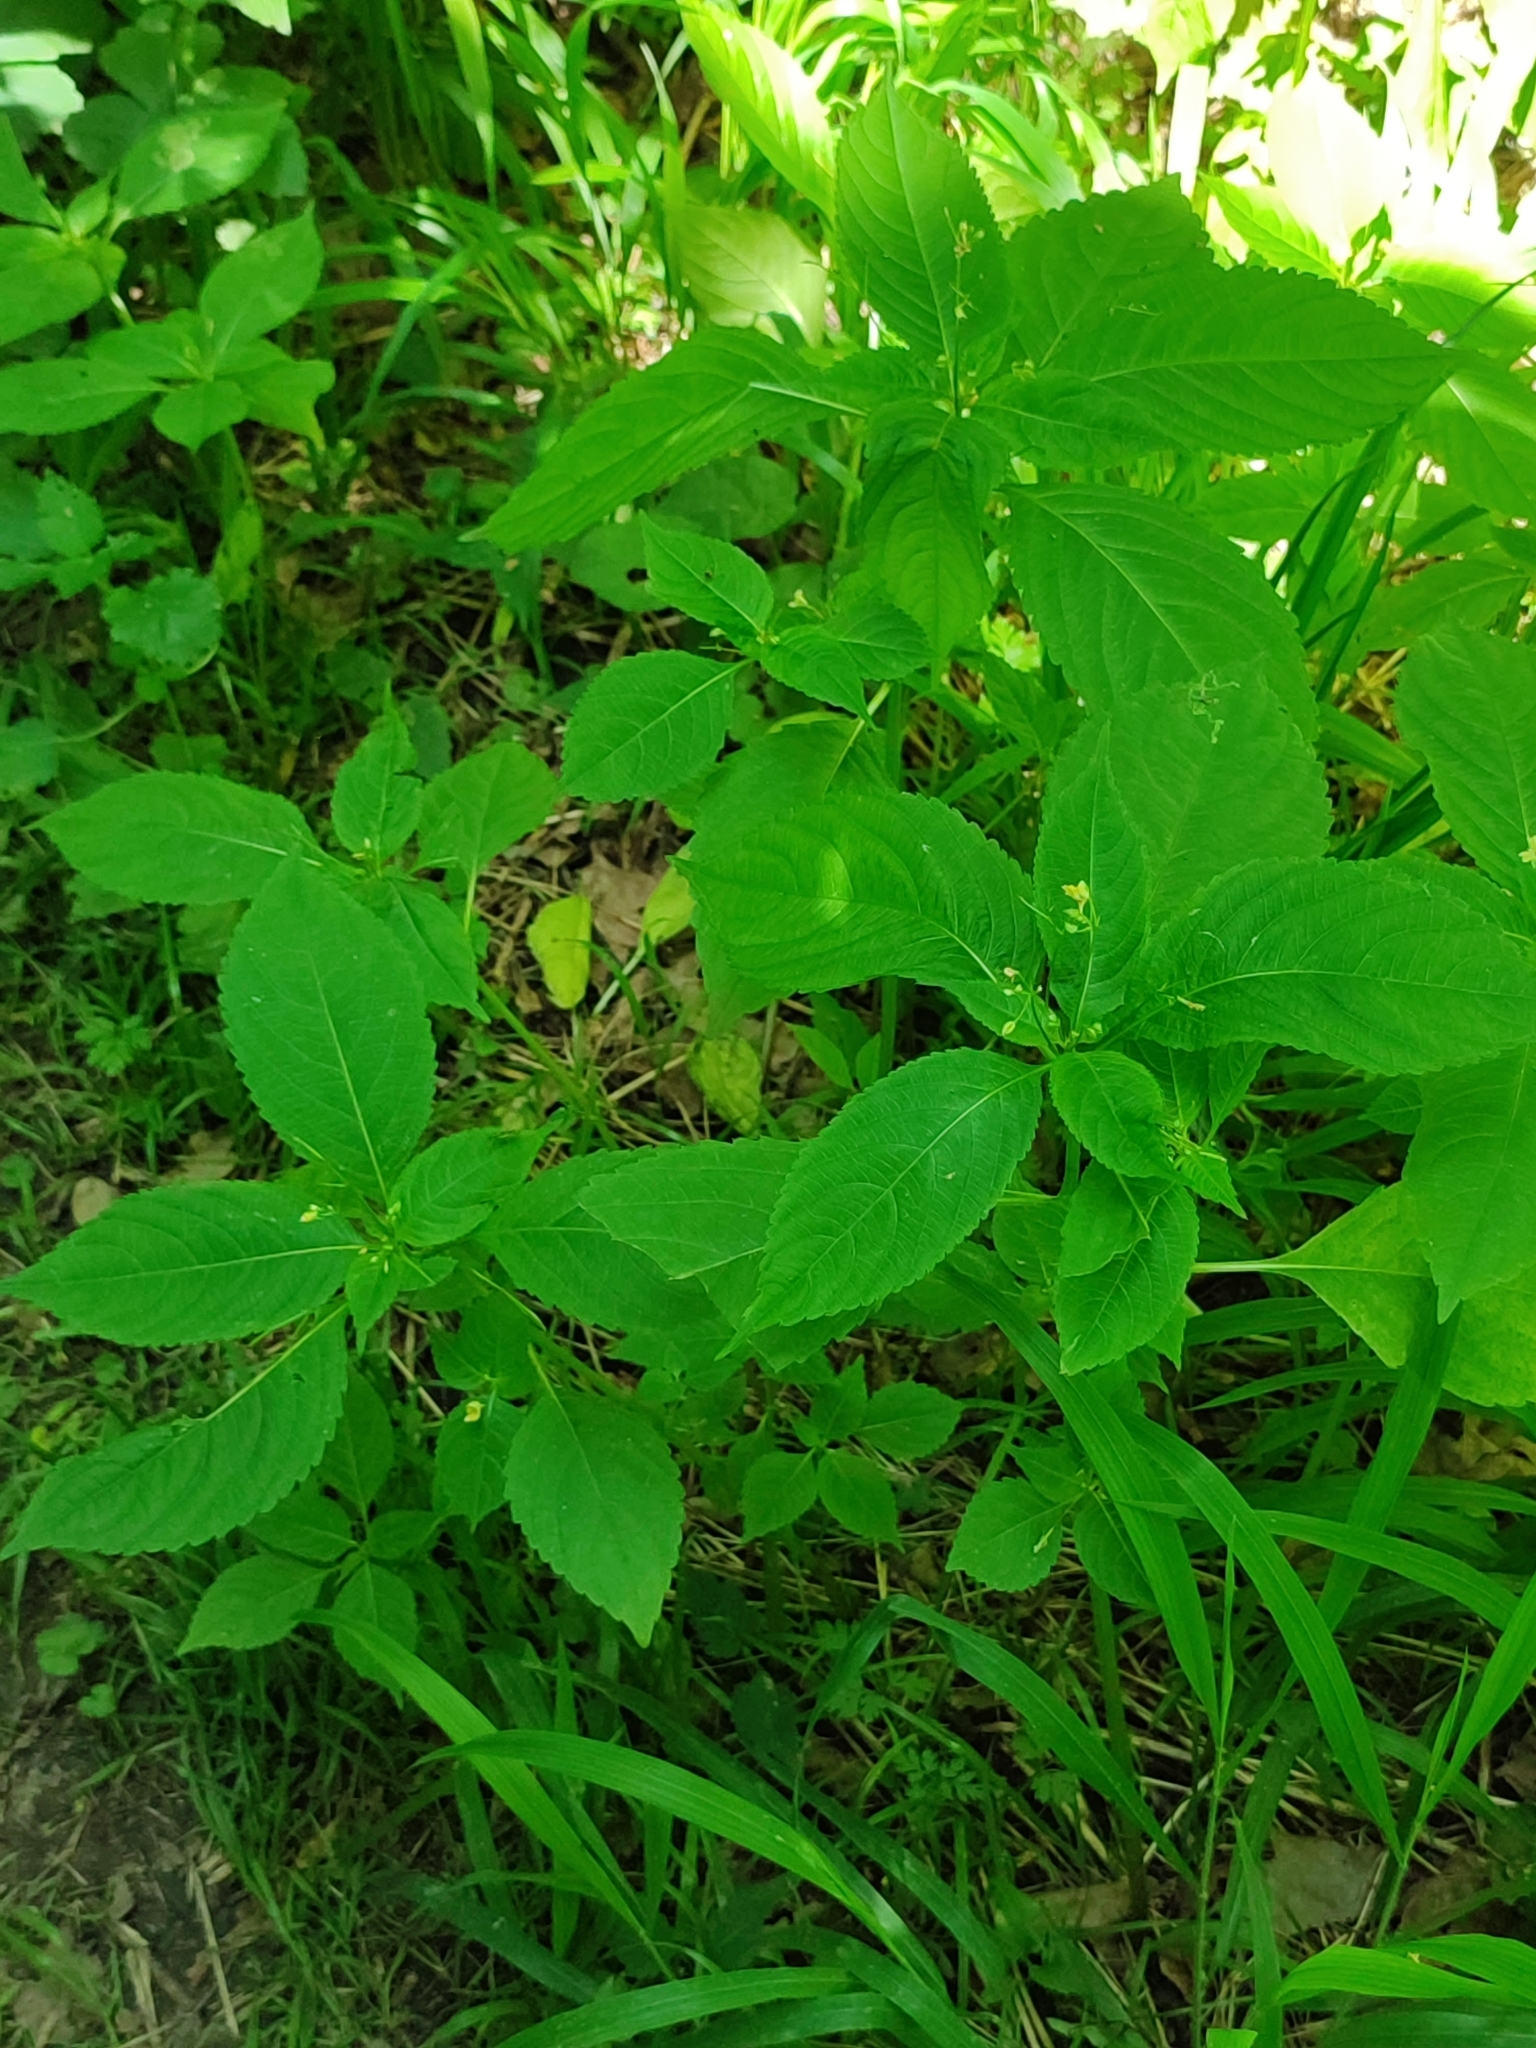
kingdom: Plantae
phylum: Tracheophyta
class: Magnoliopsida
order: Ericales
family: Balsaminaceae
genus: Impatiens
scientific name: Impatiens parviflora
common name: Small balsam
